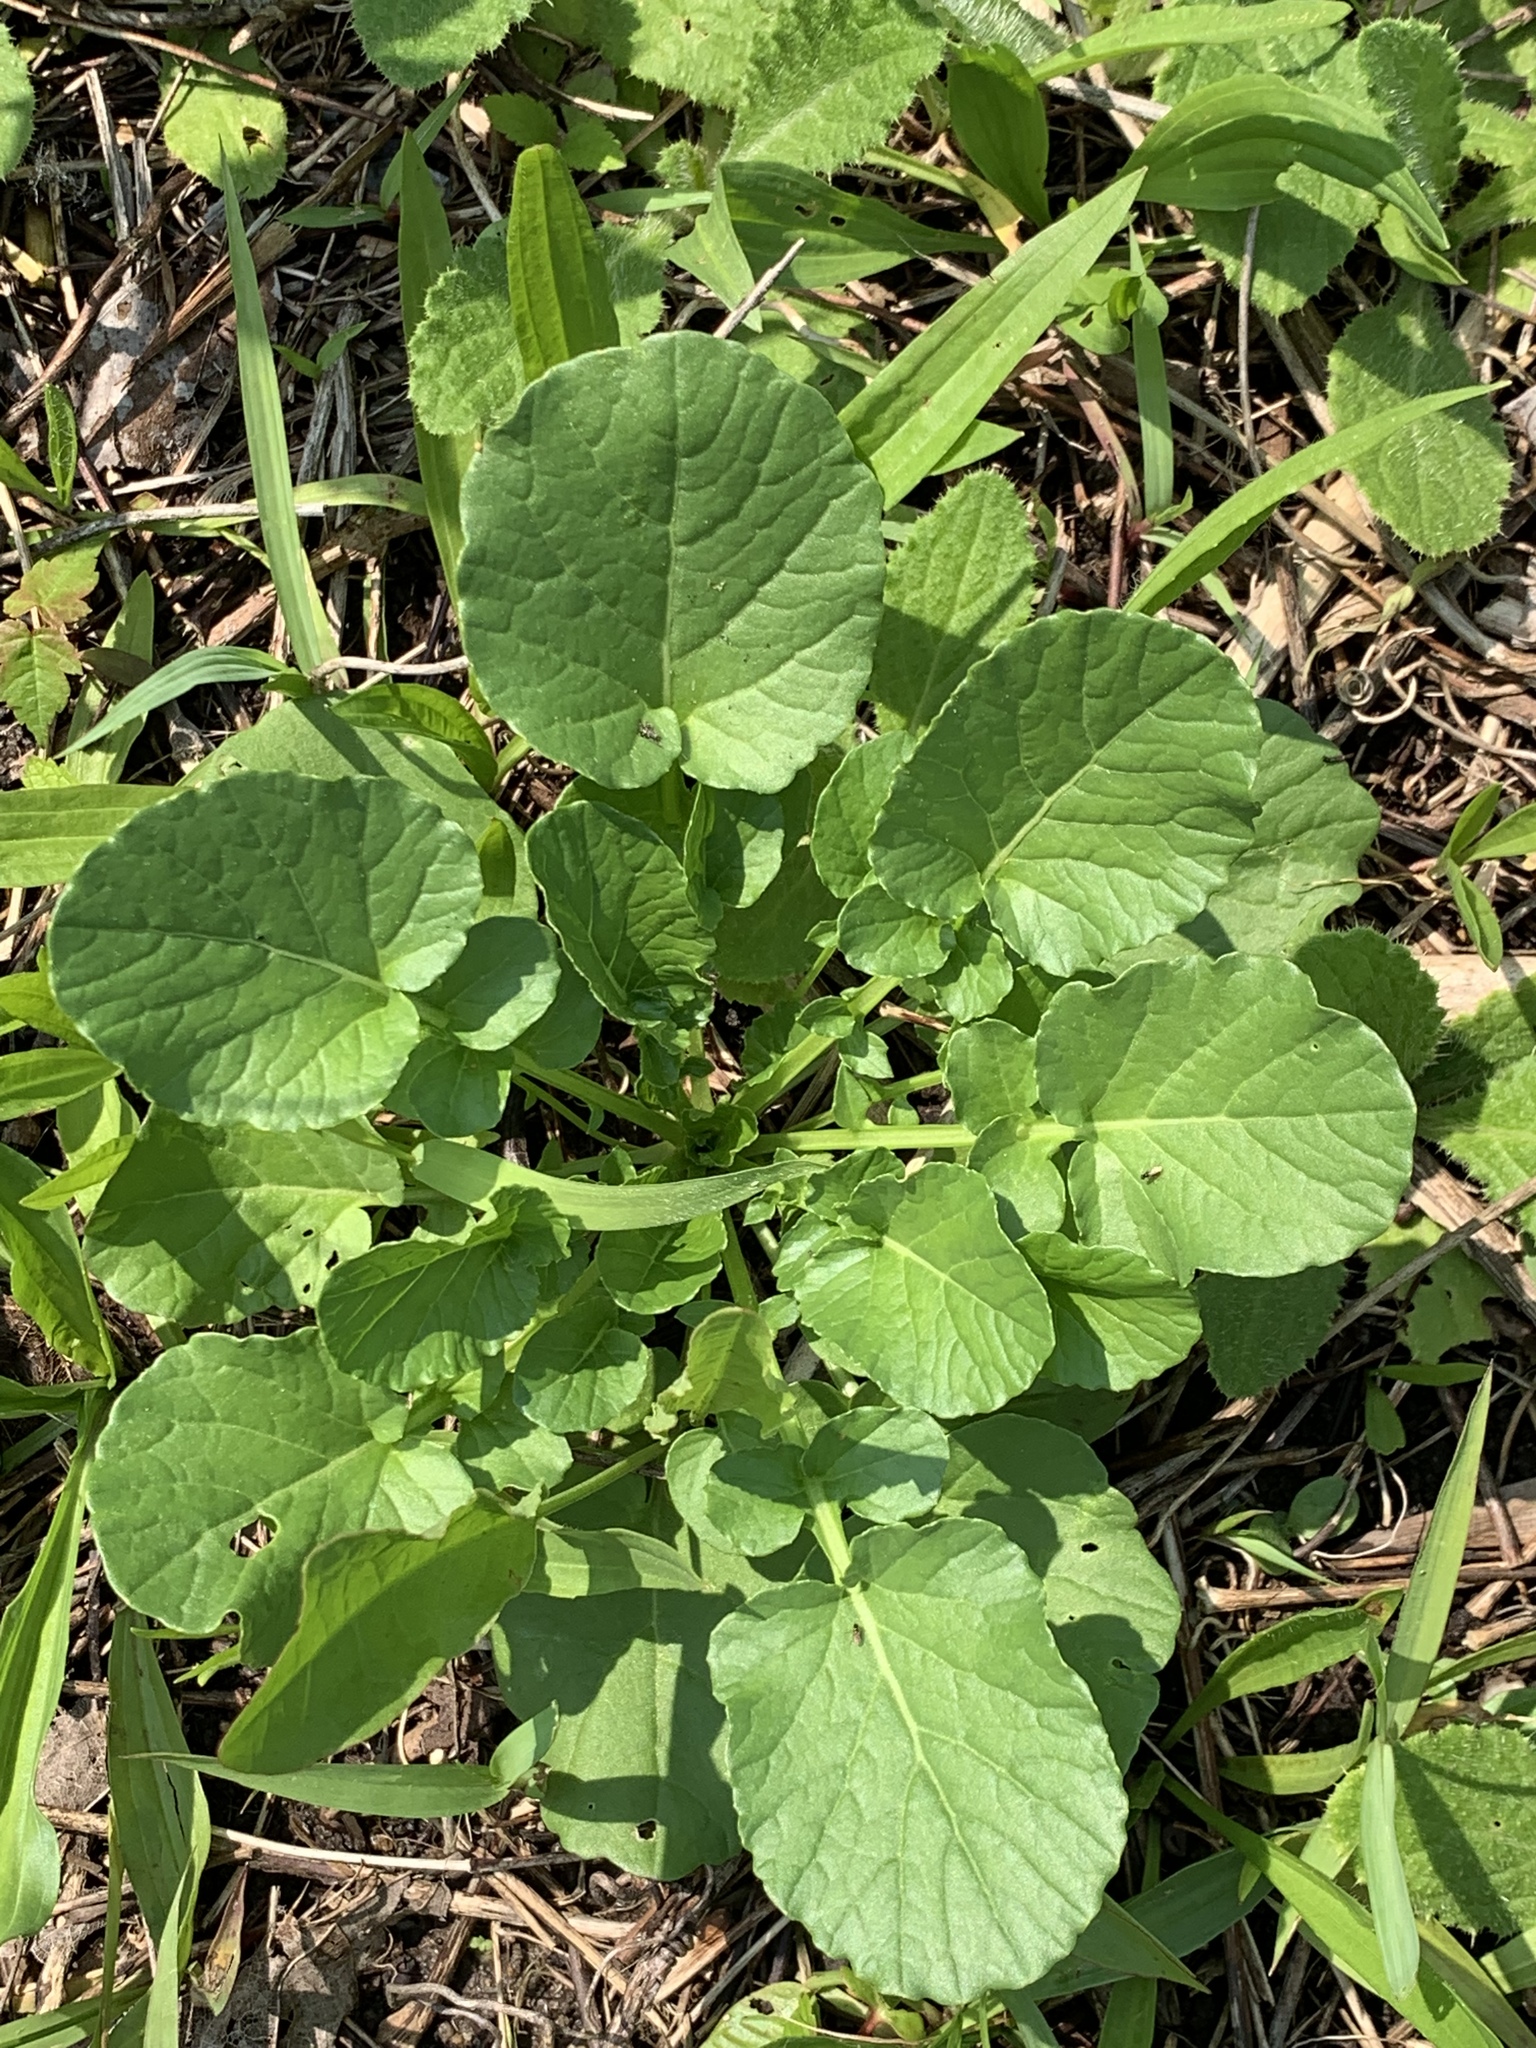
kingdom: Plantae
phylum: Tracheophyta
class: Magnoliopsida
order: Brassicales
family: Brassicaceae
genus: Barbarea
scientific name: Barbarea vulgaris
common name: Cressy-greens
